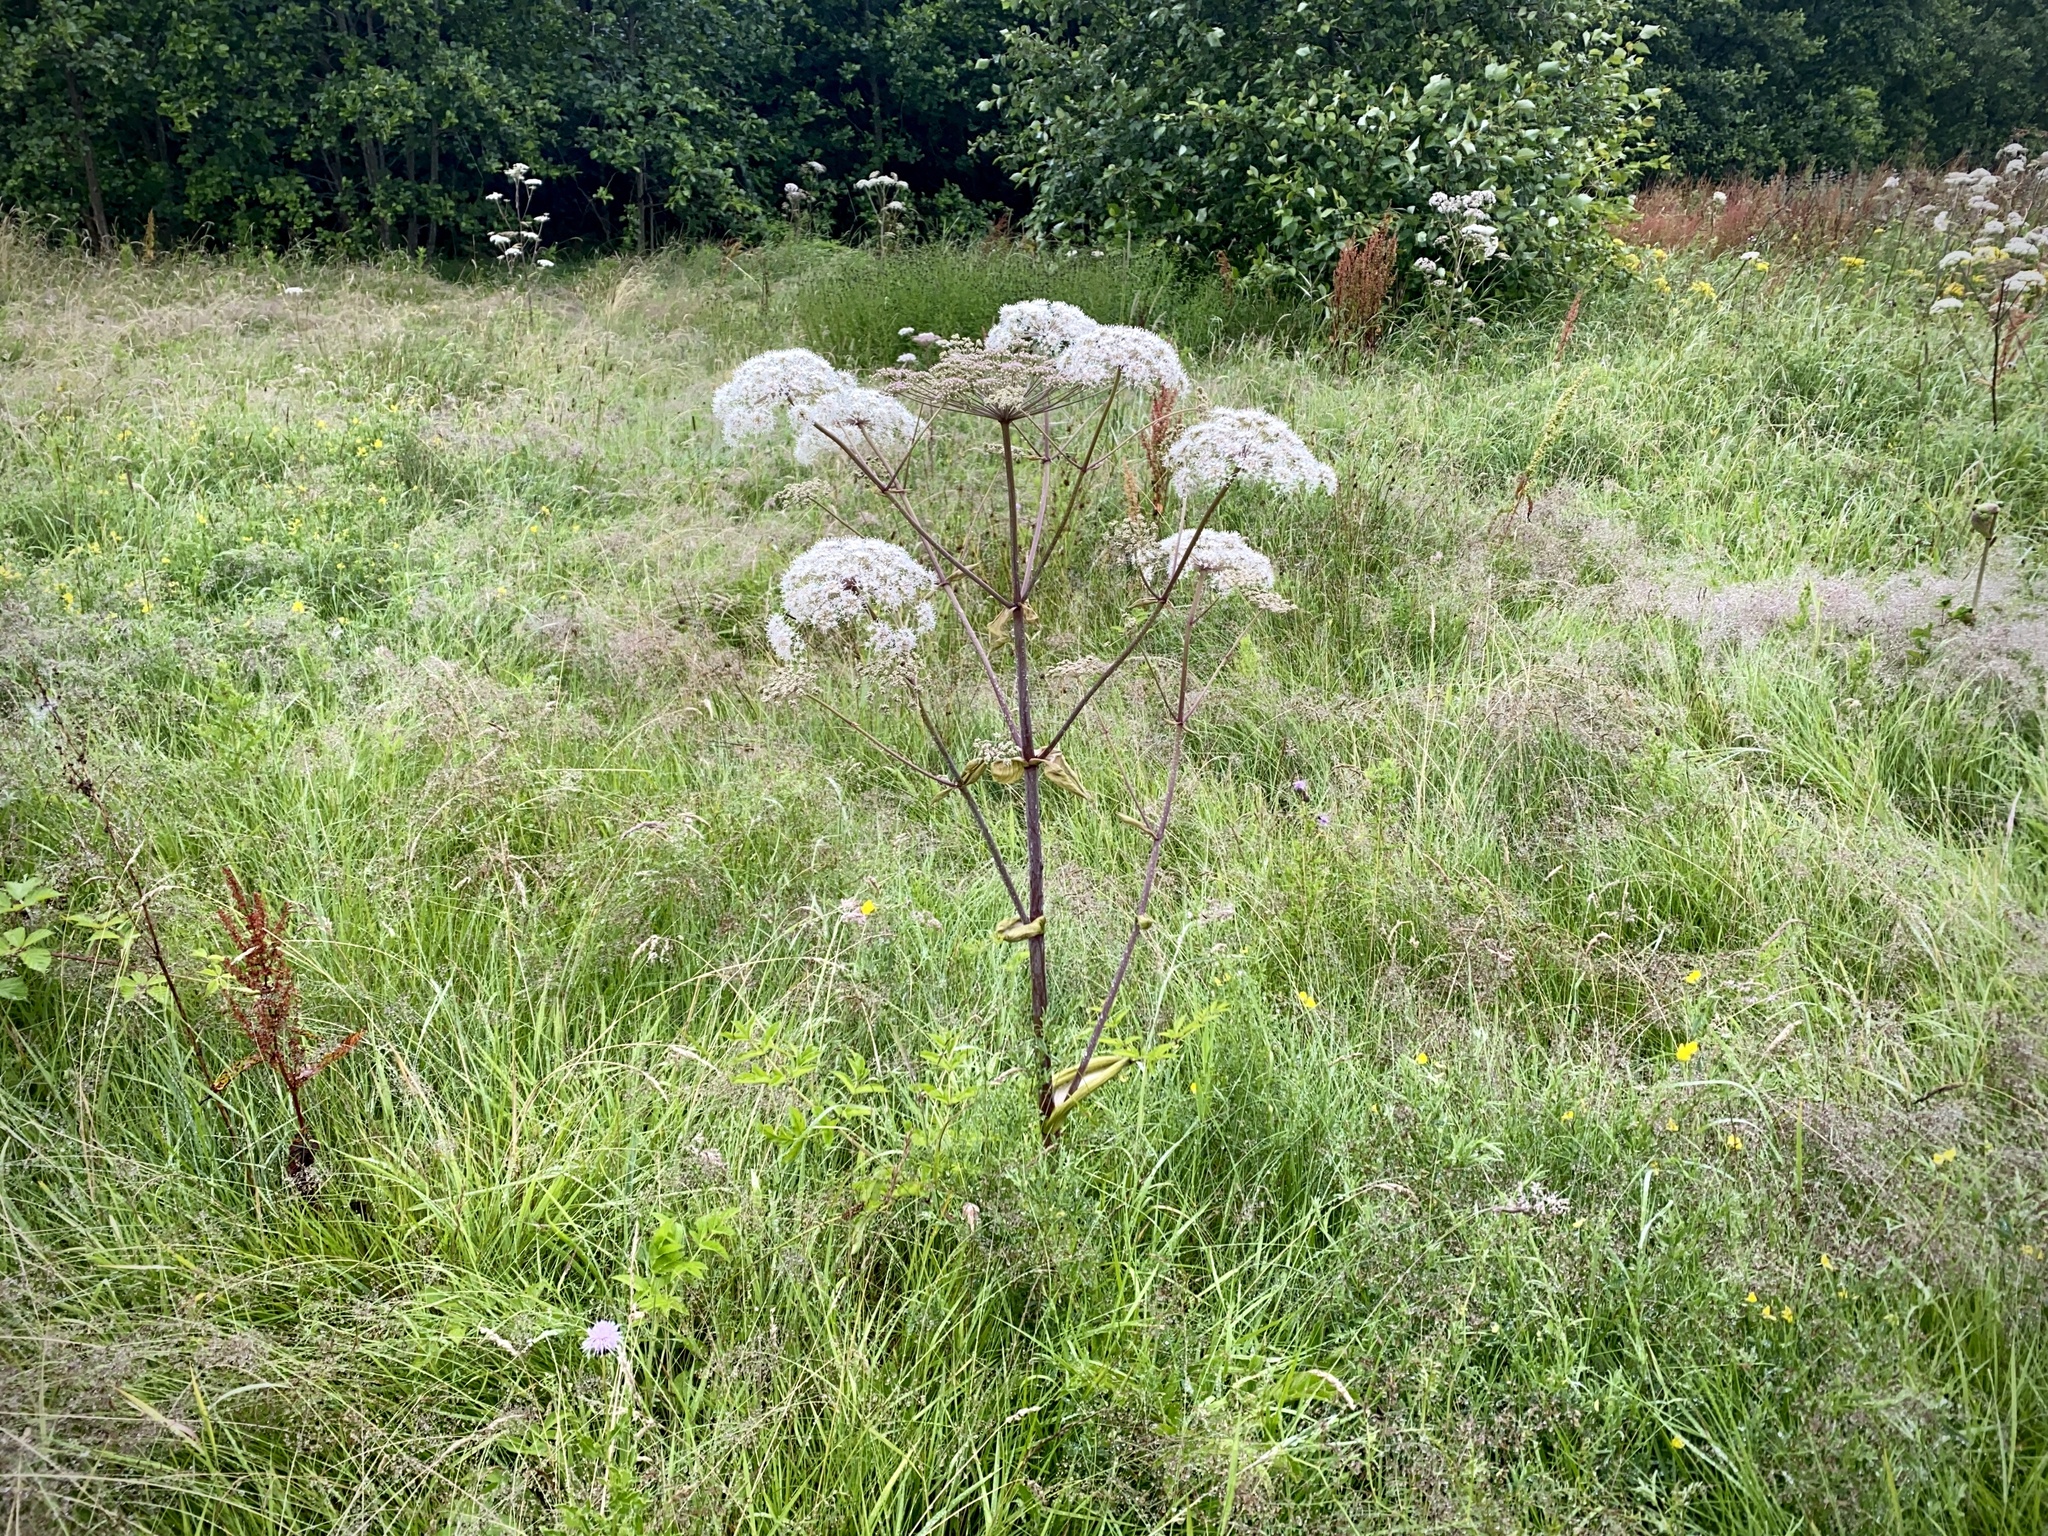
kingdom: Plantae
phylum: Tracheophyta
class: Magnoliopsida
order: Apiales
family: Apiaceae
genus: Angelica
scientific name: Angelica sylvestris
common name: Wild angelica
